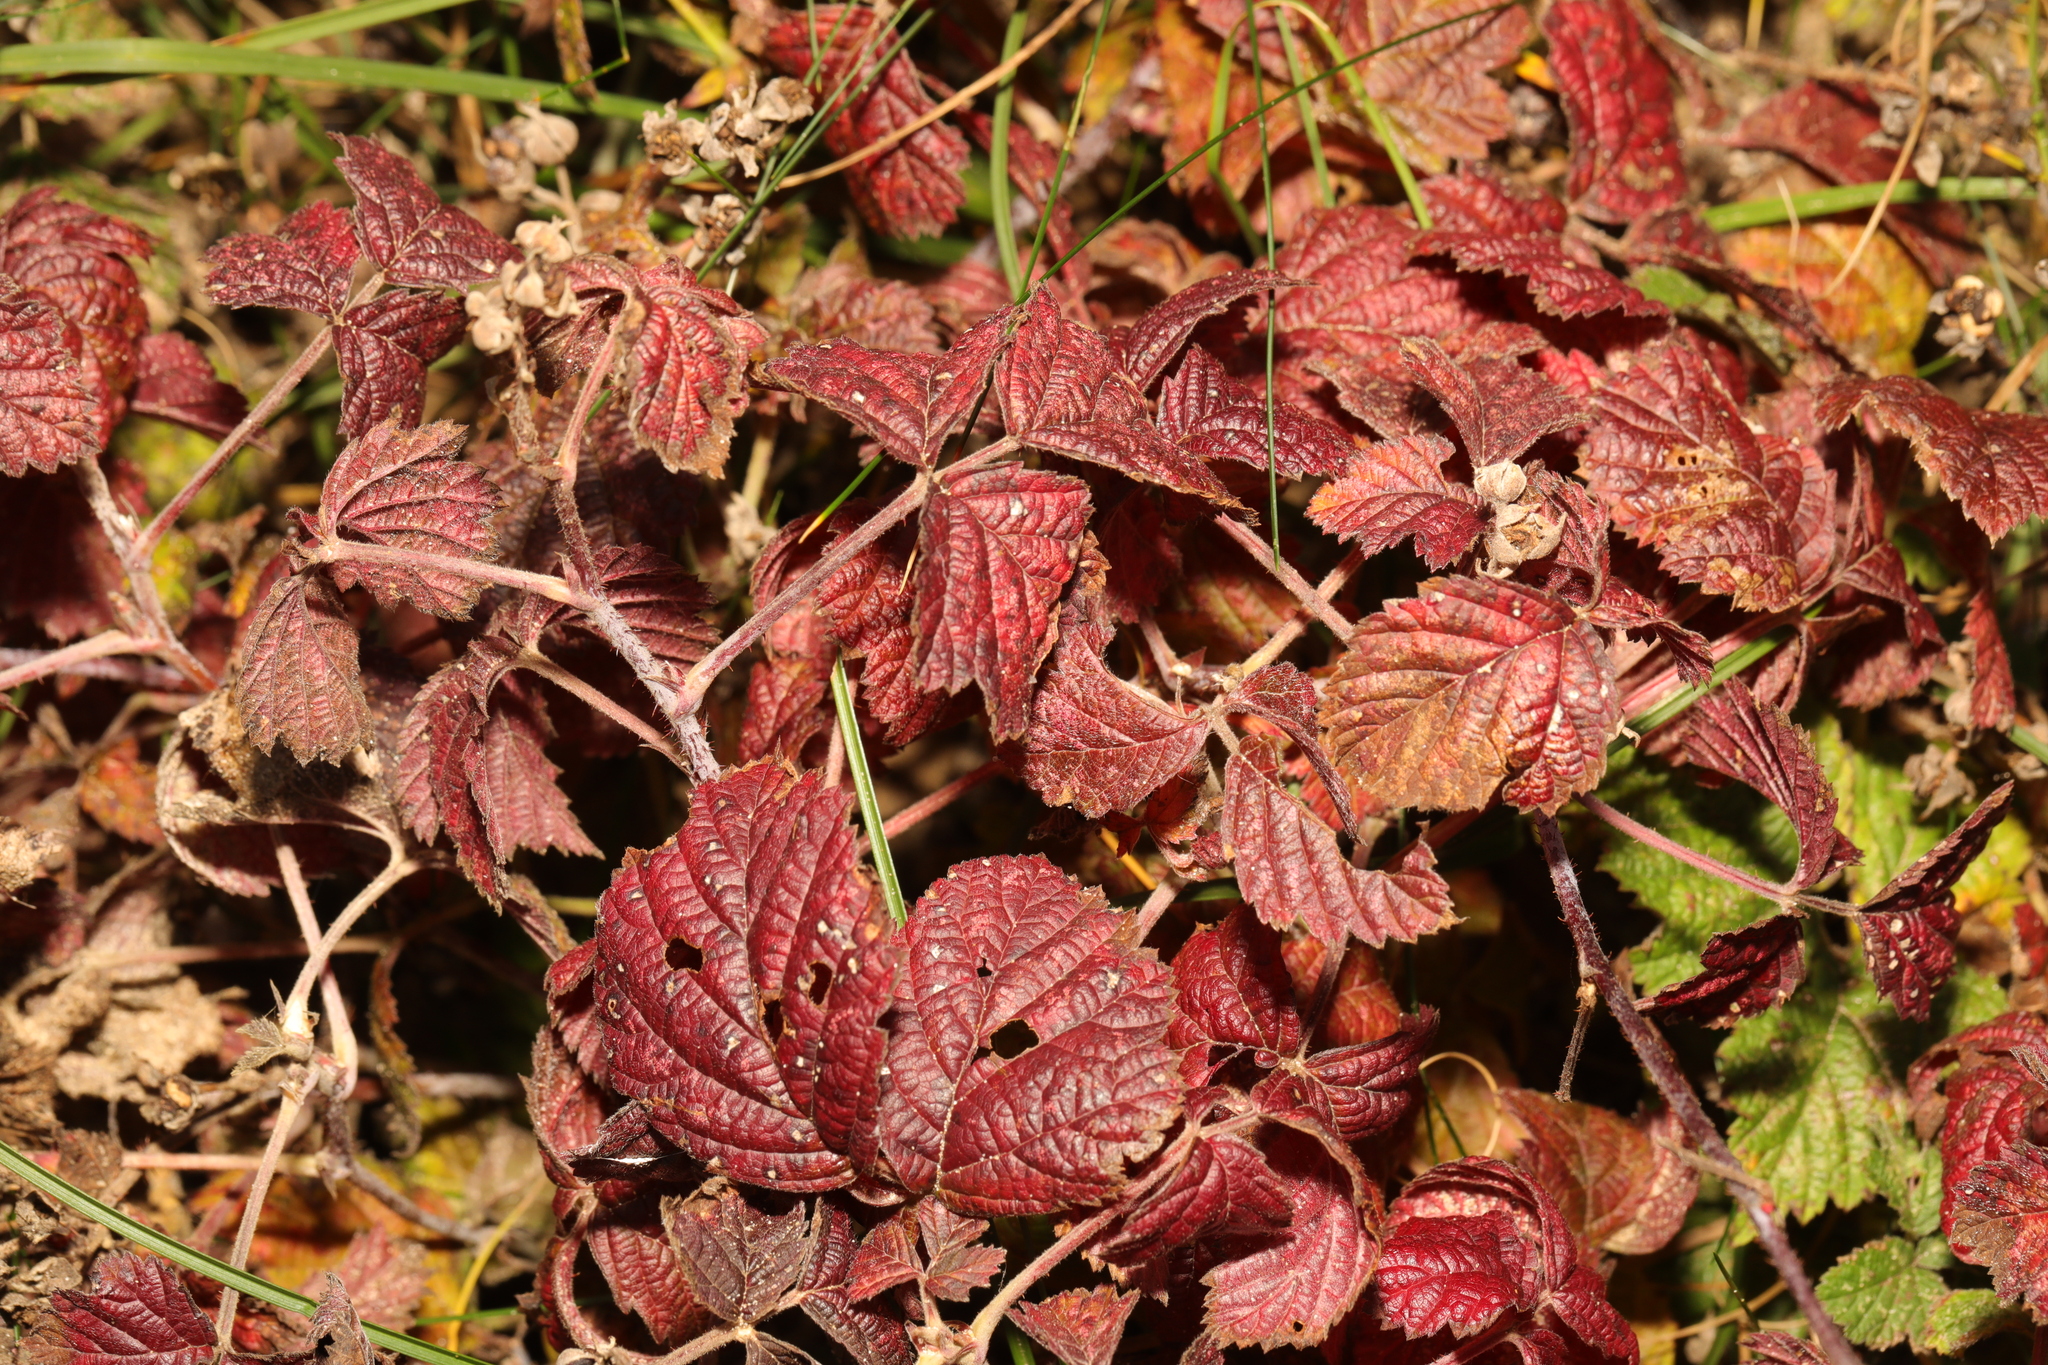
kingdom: Plantae
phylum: Tracheophyta
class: Magnoliopsida
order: Rosales
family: Rosaceae
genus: Rubus
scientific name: Rubus caesius
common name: Dewberry
